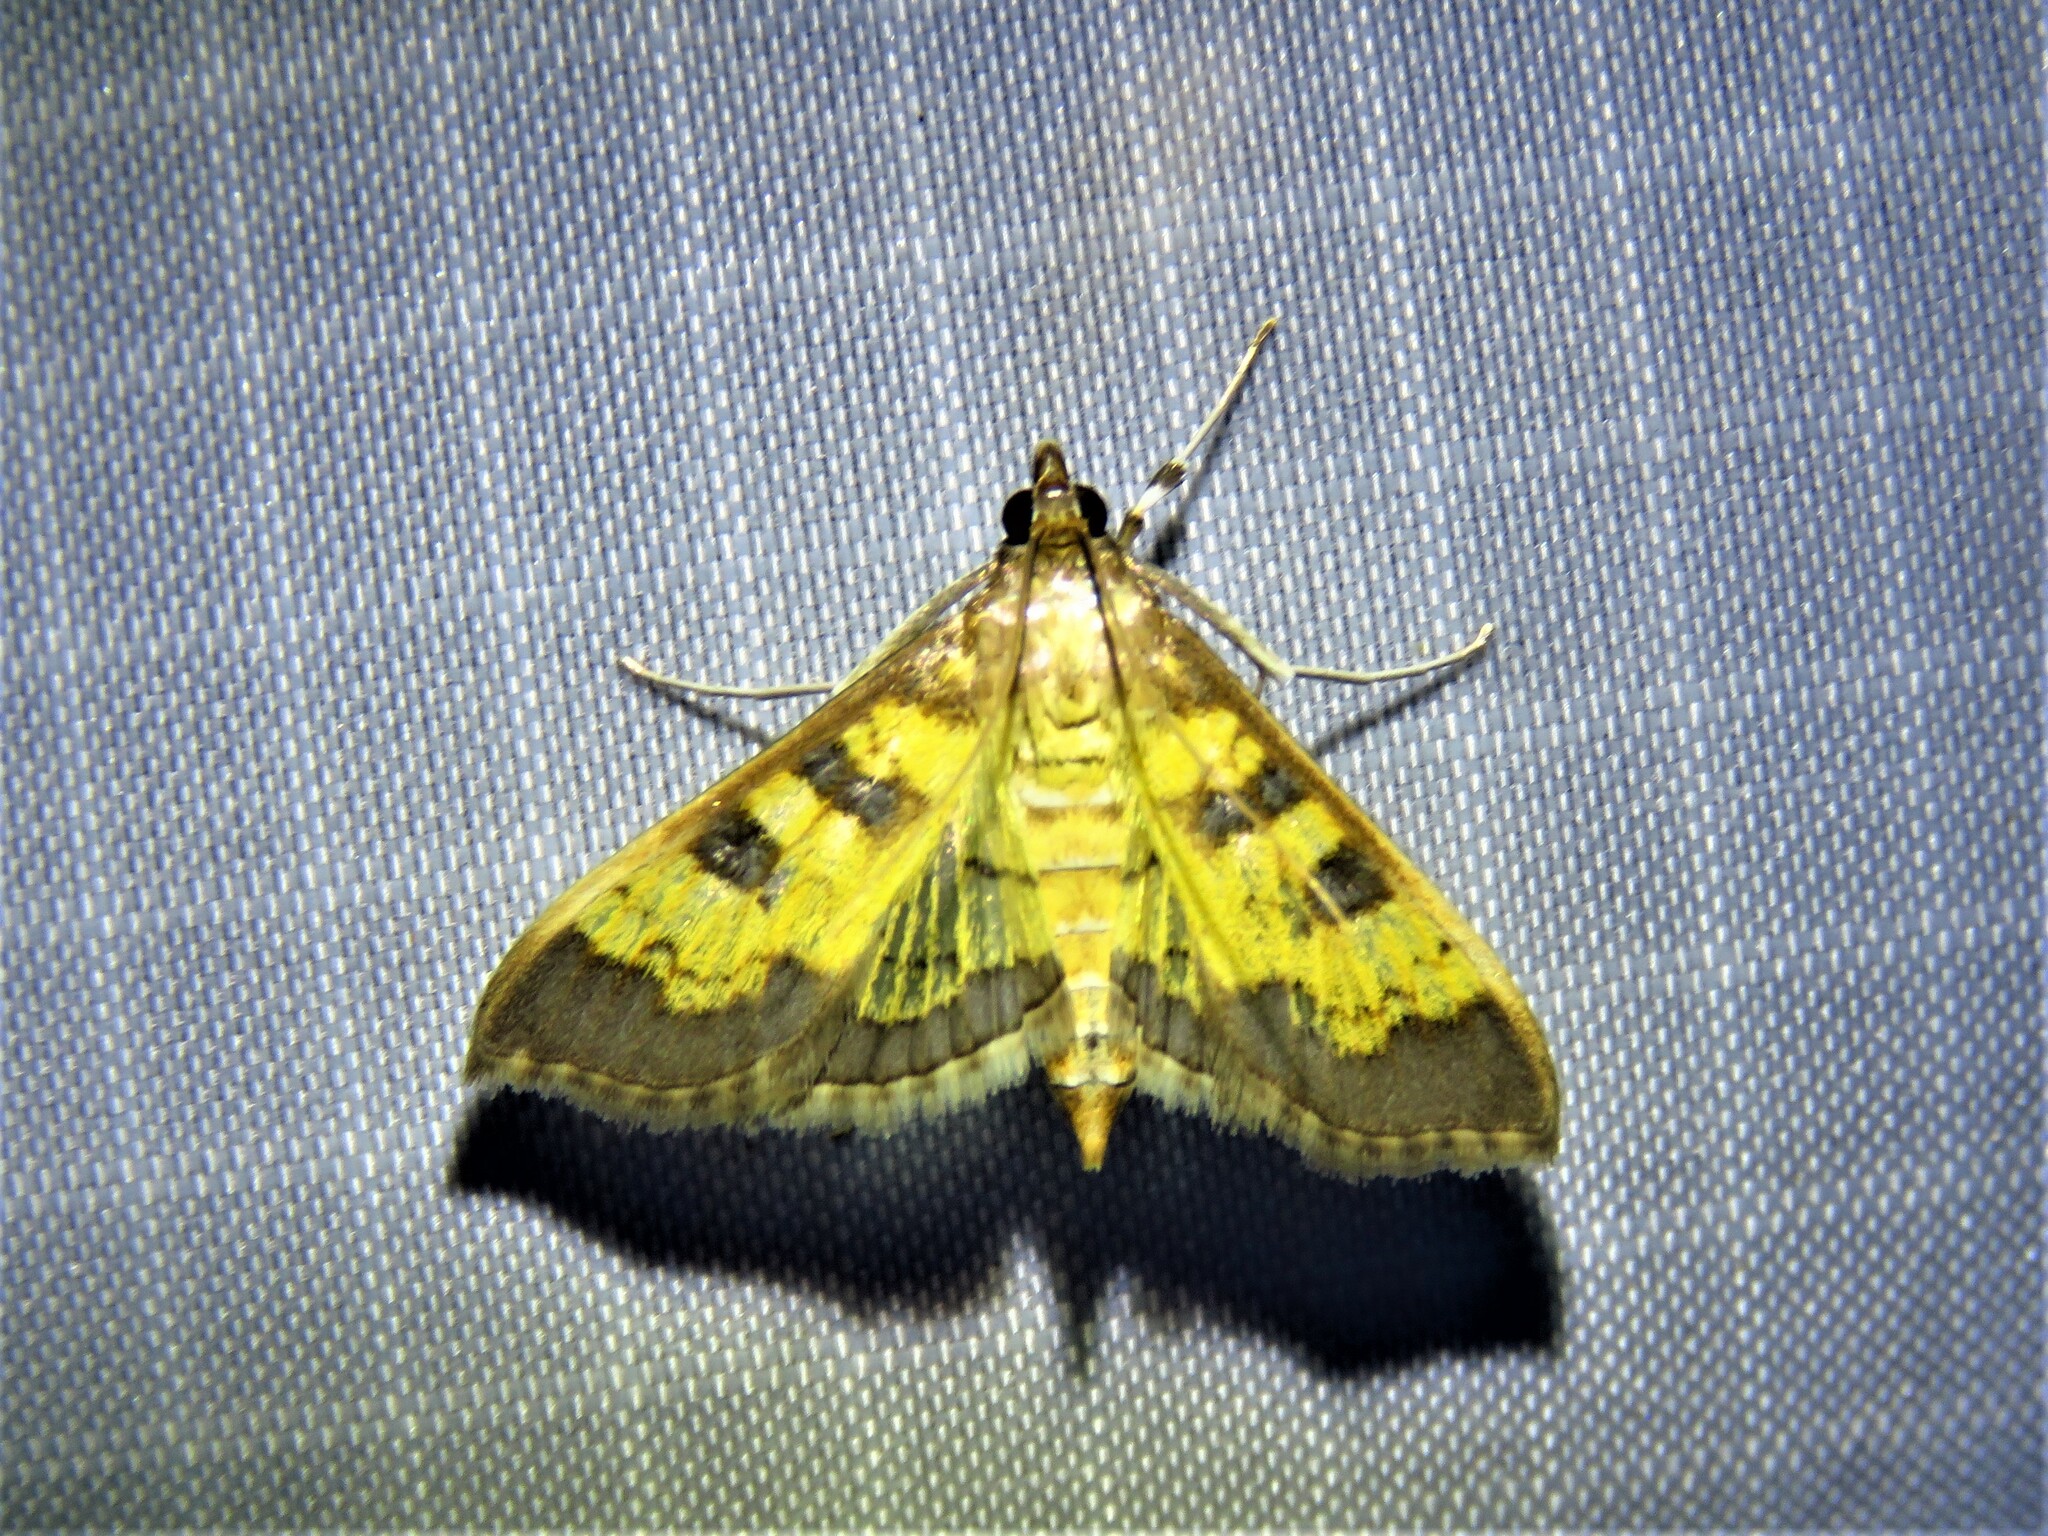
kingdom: Animalia
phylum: Arthropoda
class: Insecta
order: Lepidoptera
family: Crambidae
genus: Cryptographis
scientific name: Cryptographis elealis
